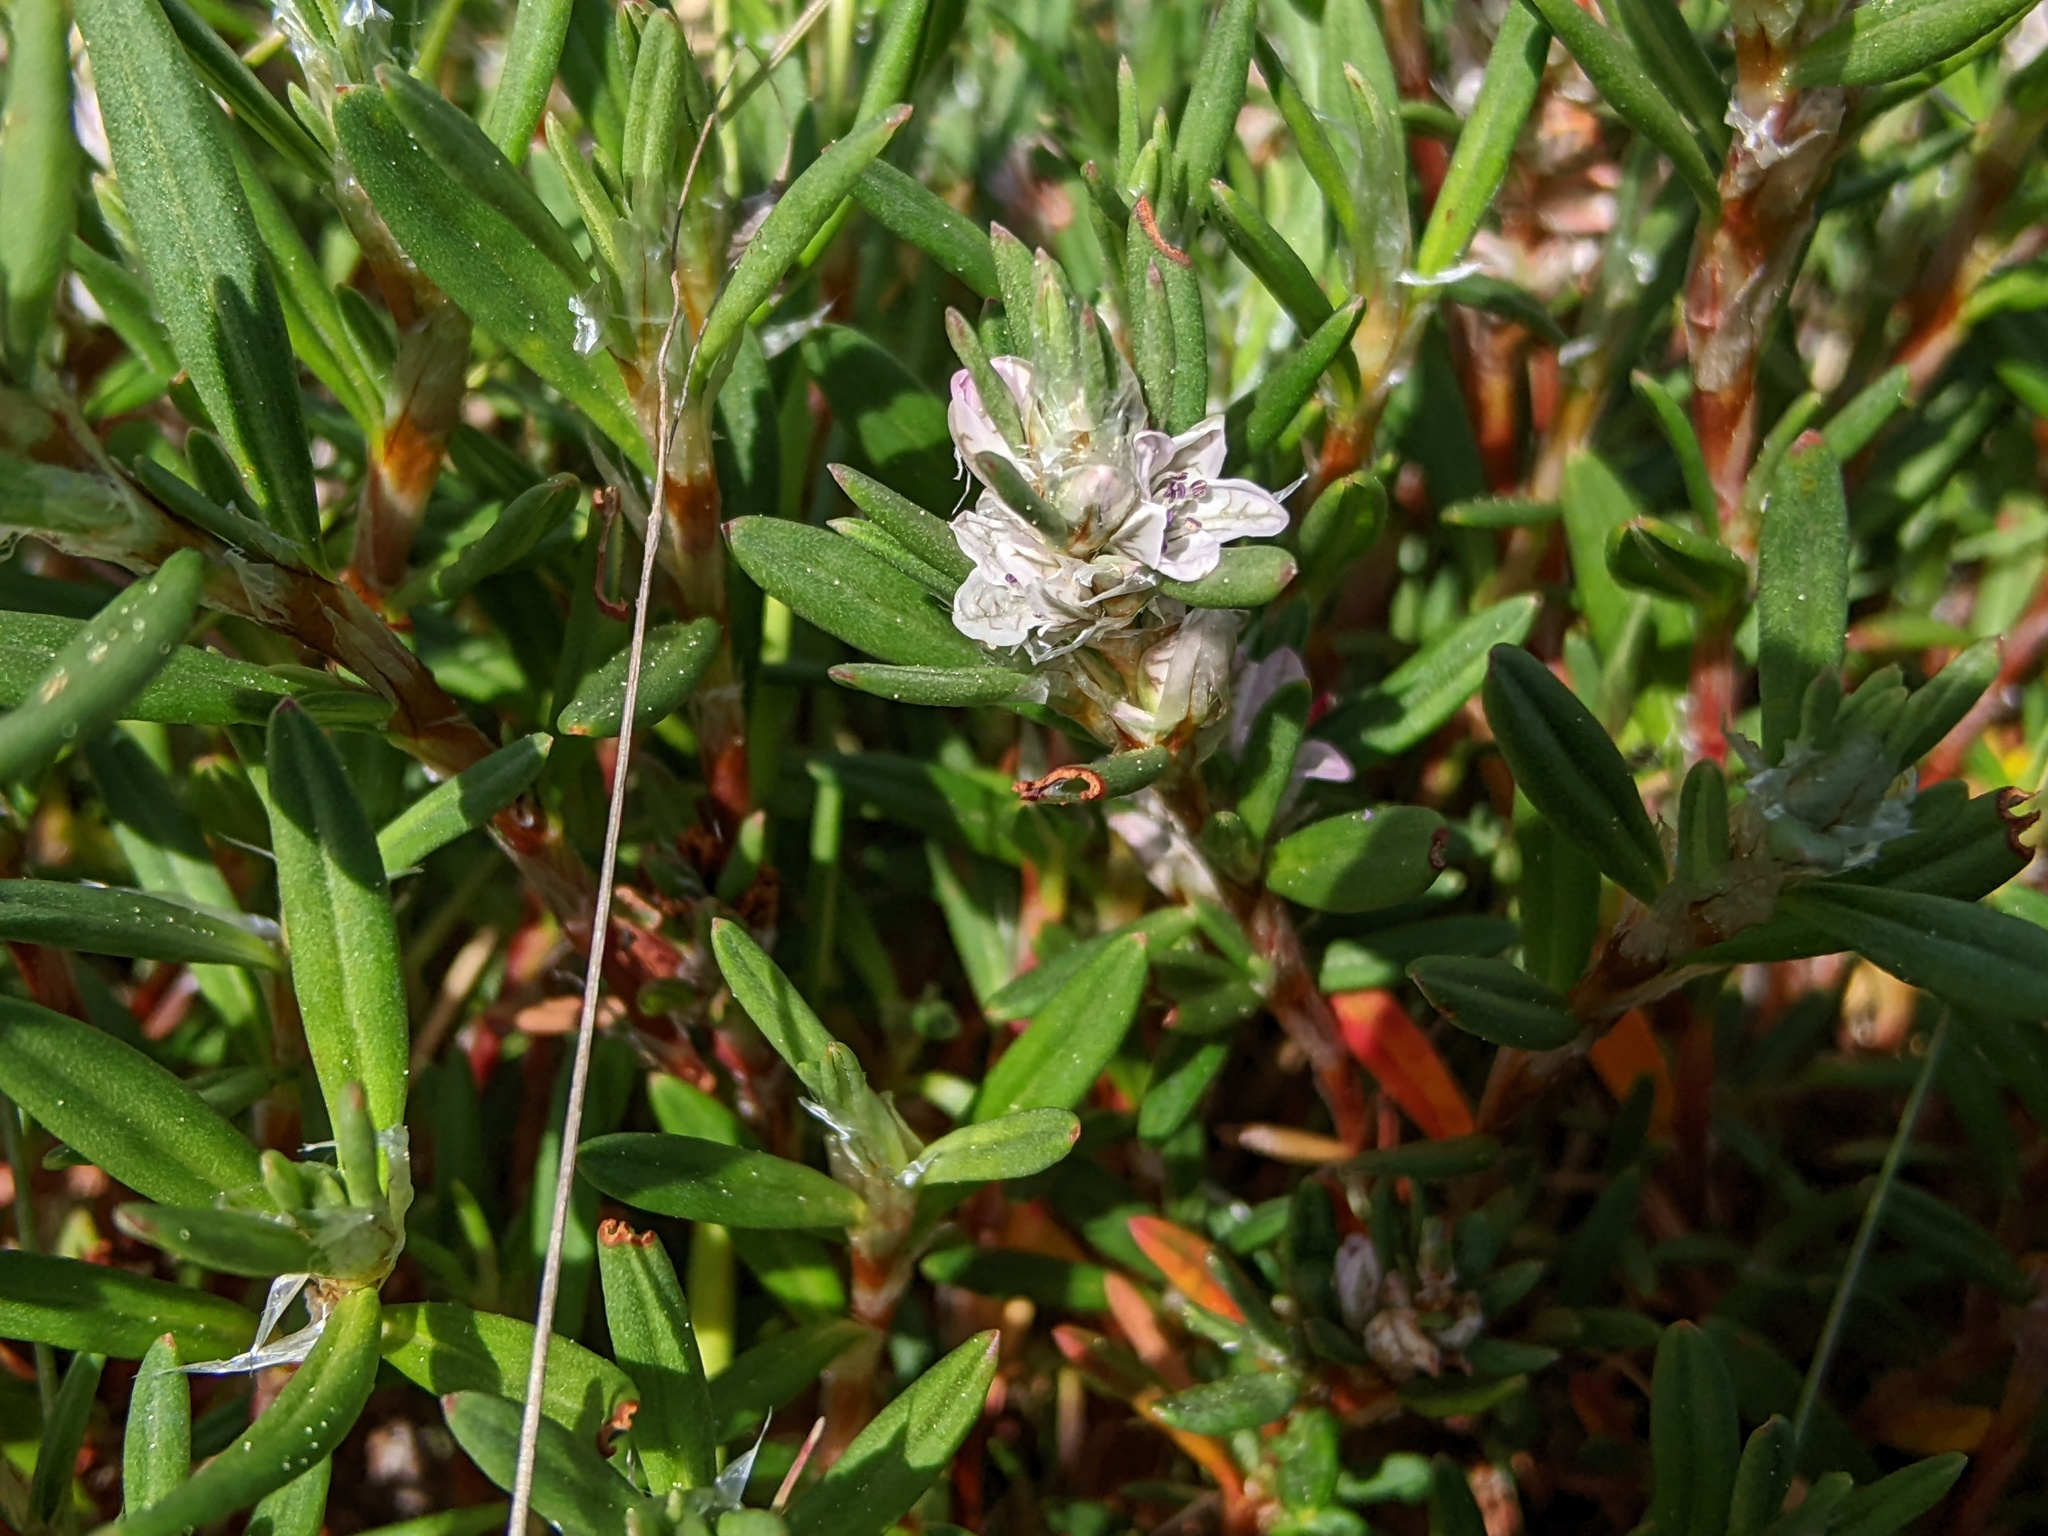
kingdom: Plantae
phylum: Tracheophyta
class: Magnoliopsida
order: Caryophyllales
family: Polygonaceae
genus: Polygonum
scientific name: Polygonum paronychia
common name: Dune knotweed
